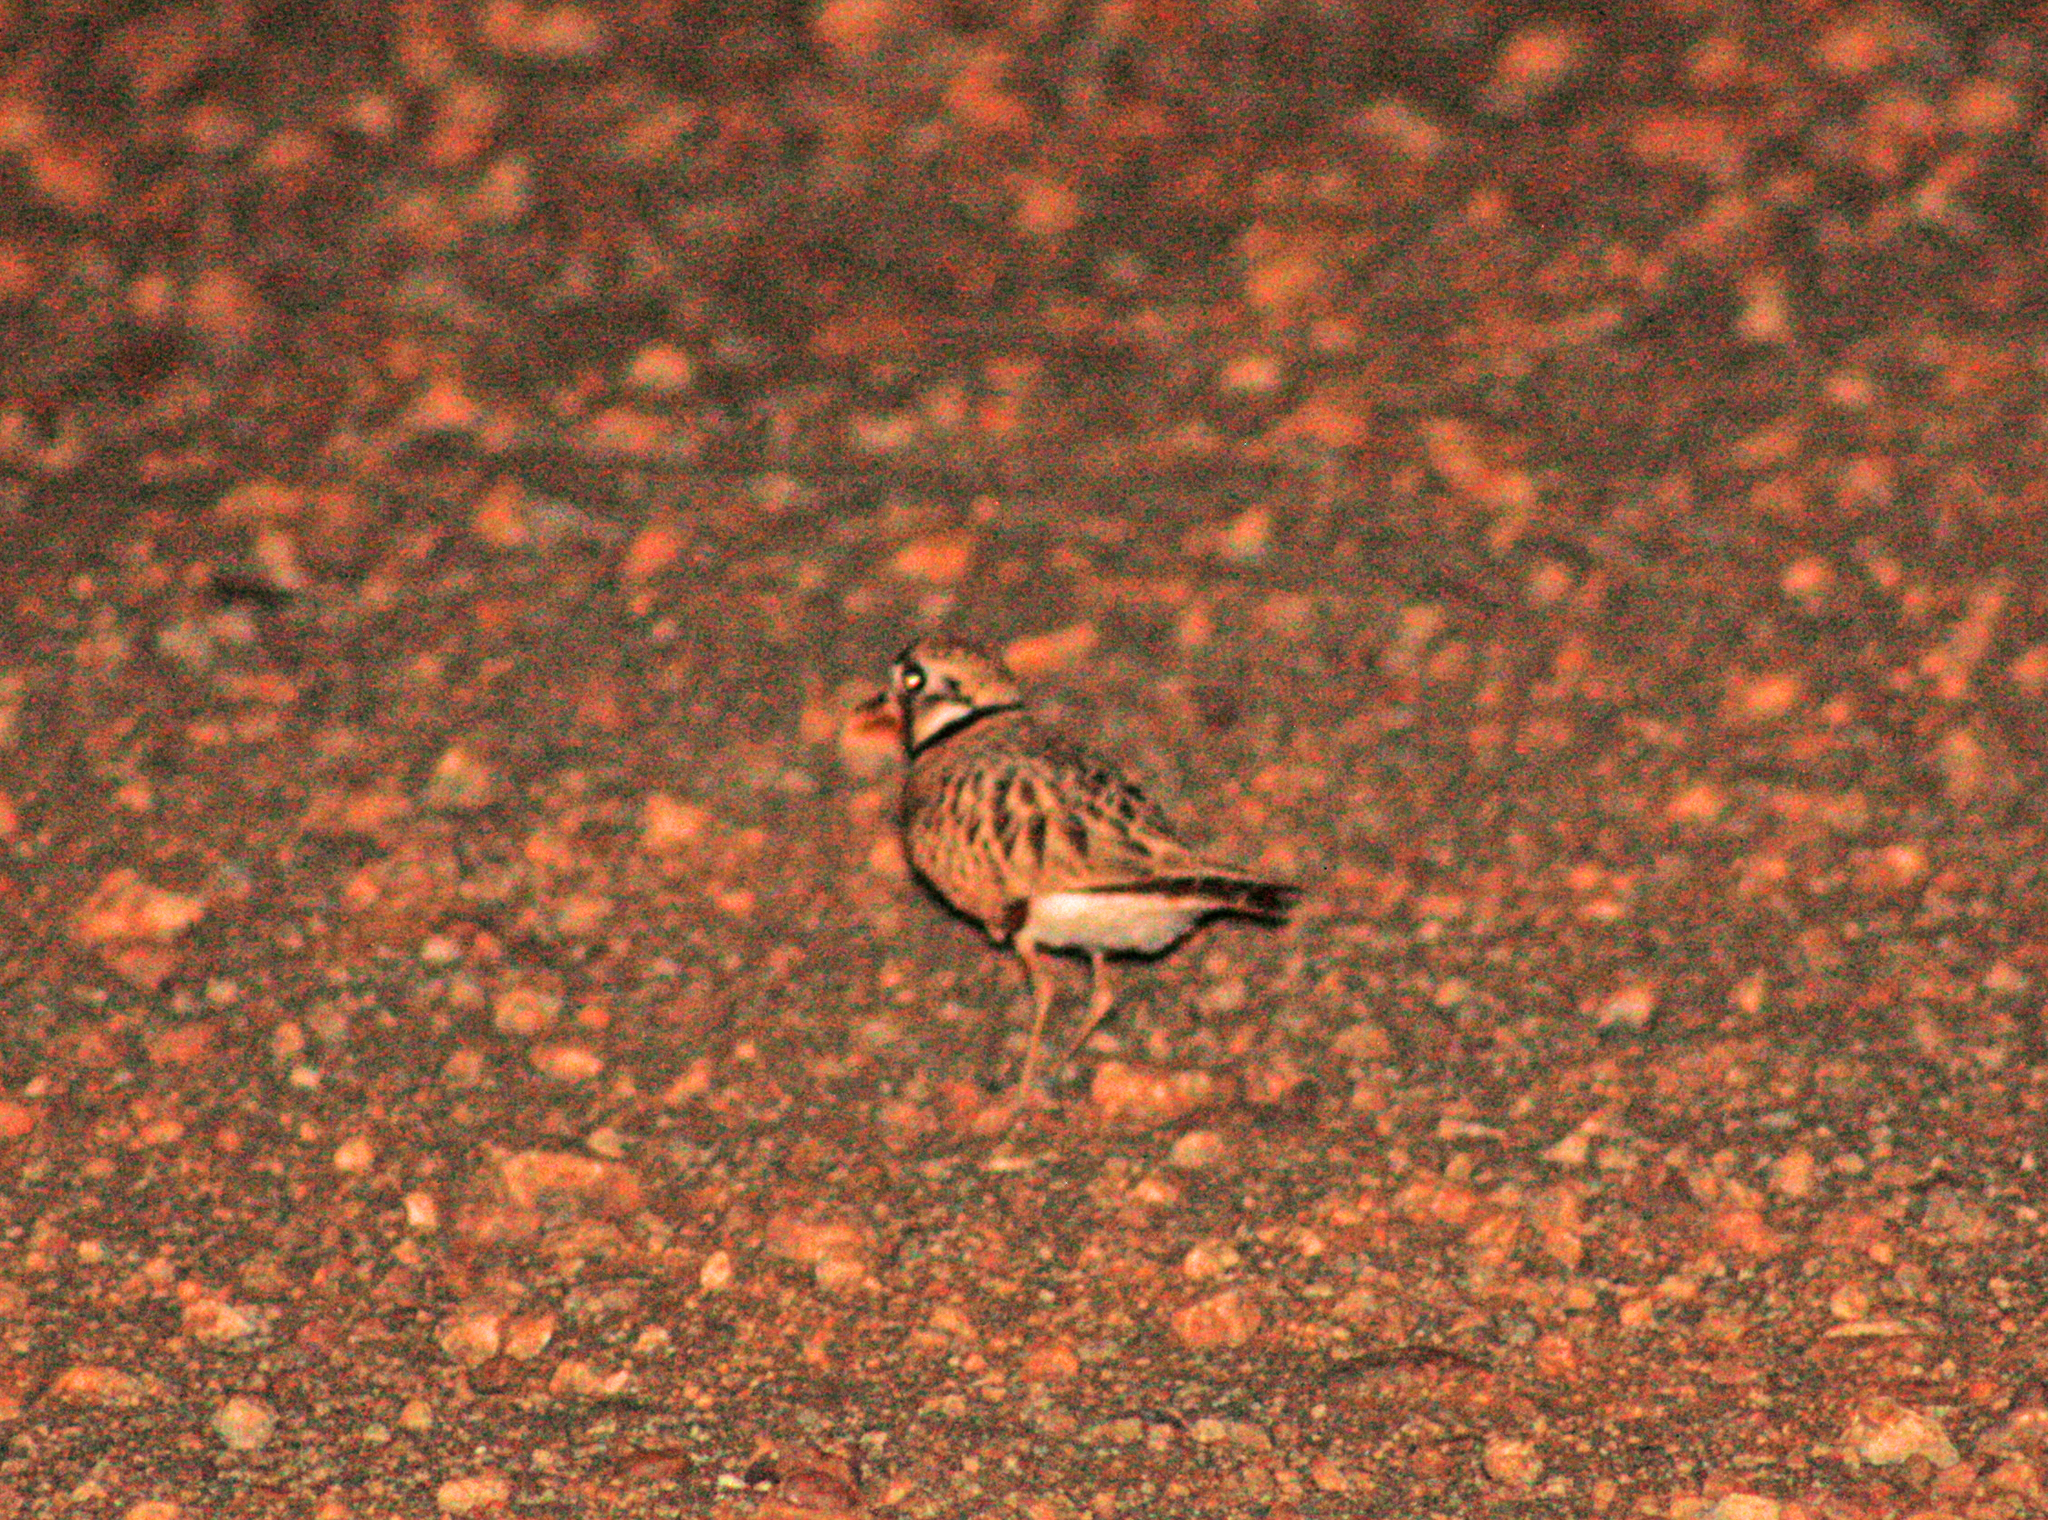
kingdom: Animalia
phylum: Chordata
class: Aves
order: Charadriiformes
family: Charadriidae
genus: Peltohyas
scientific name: Peltohyas australis
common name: Inland dotterel
